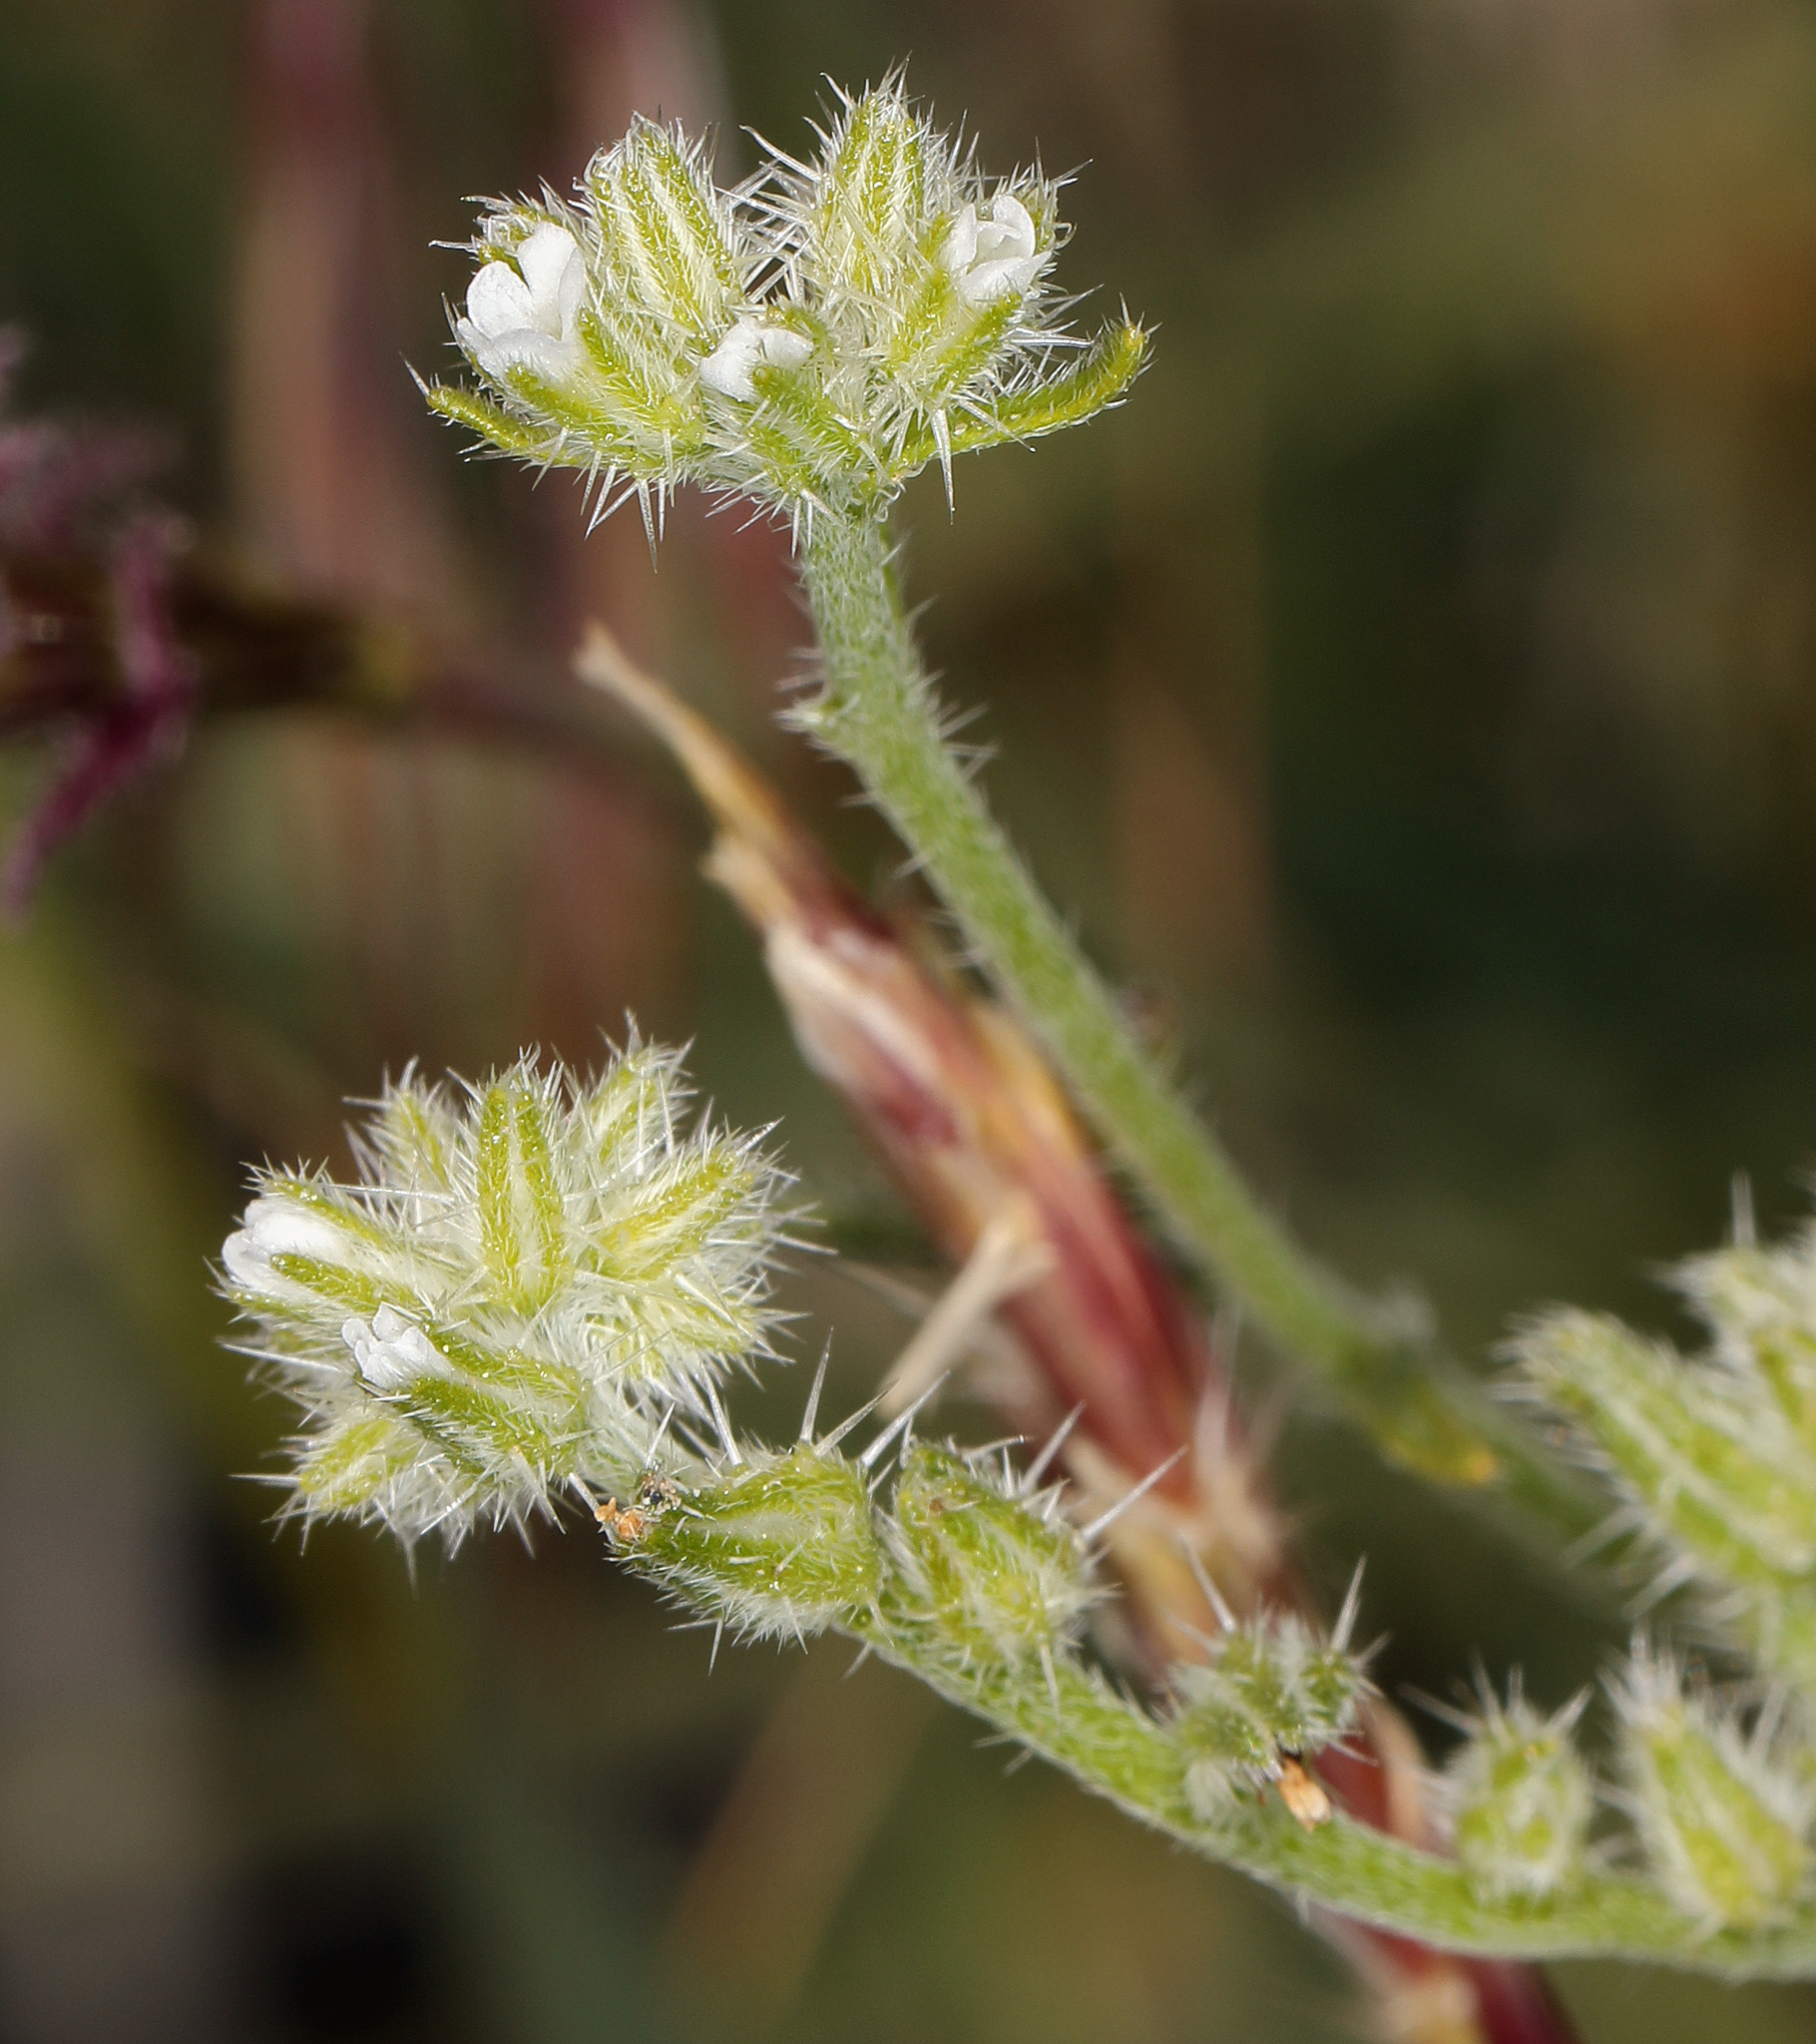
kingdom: Plantae
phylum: Tracheophyta
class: Magnoliopsida
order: Boraginales
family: Boraginaceae
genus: Cryptantha
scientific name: Cryptantha scoparia
